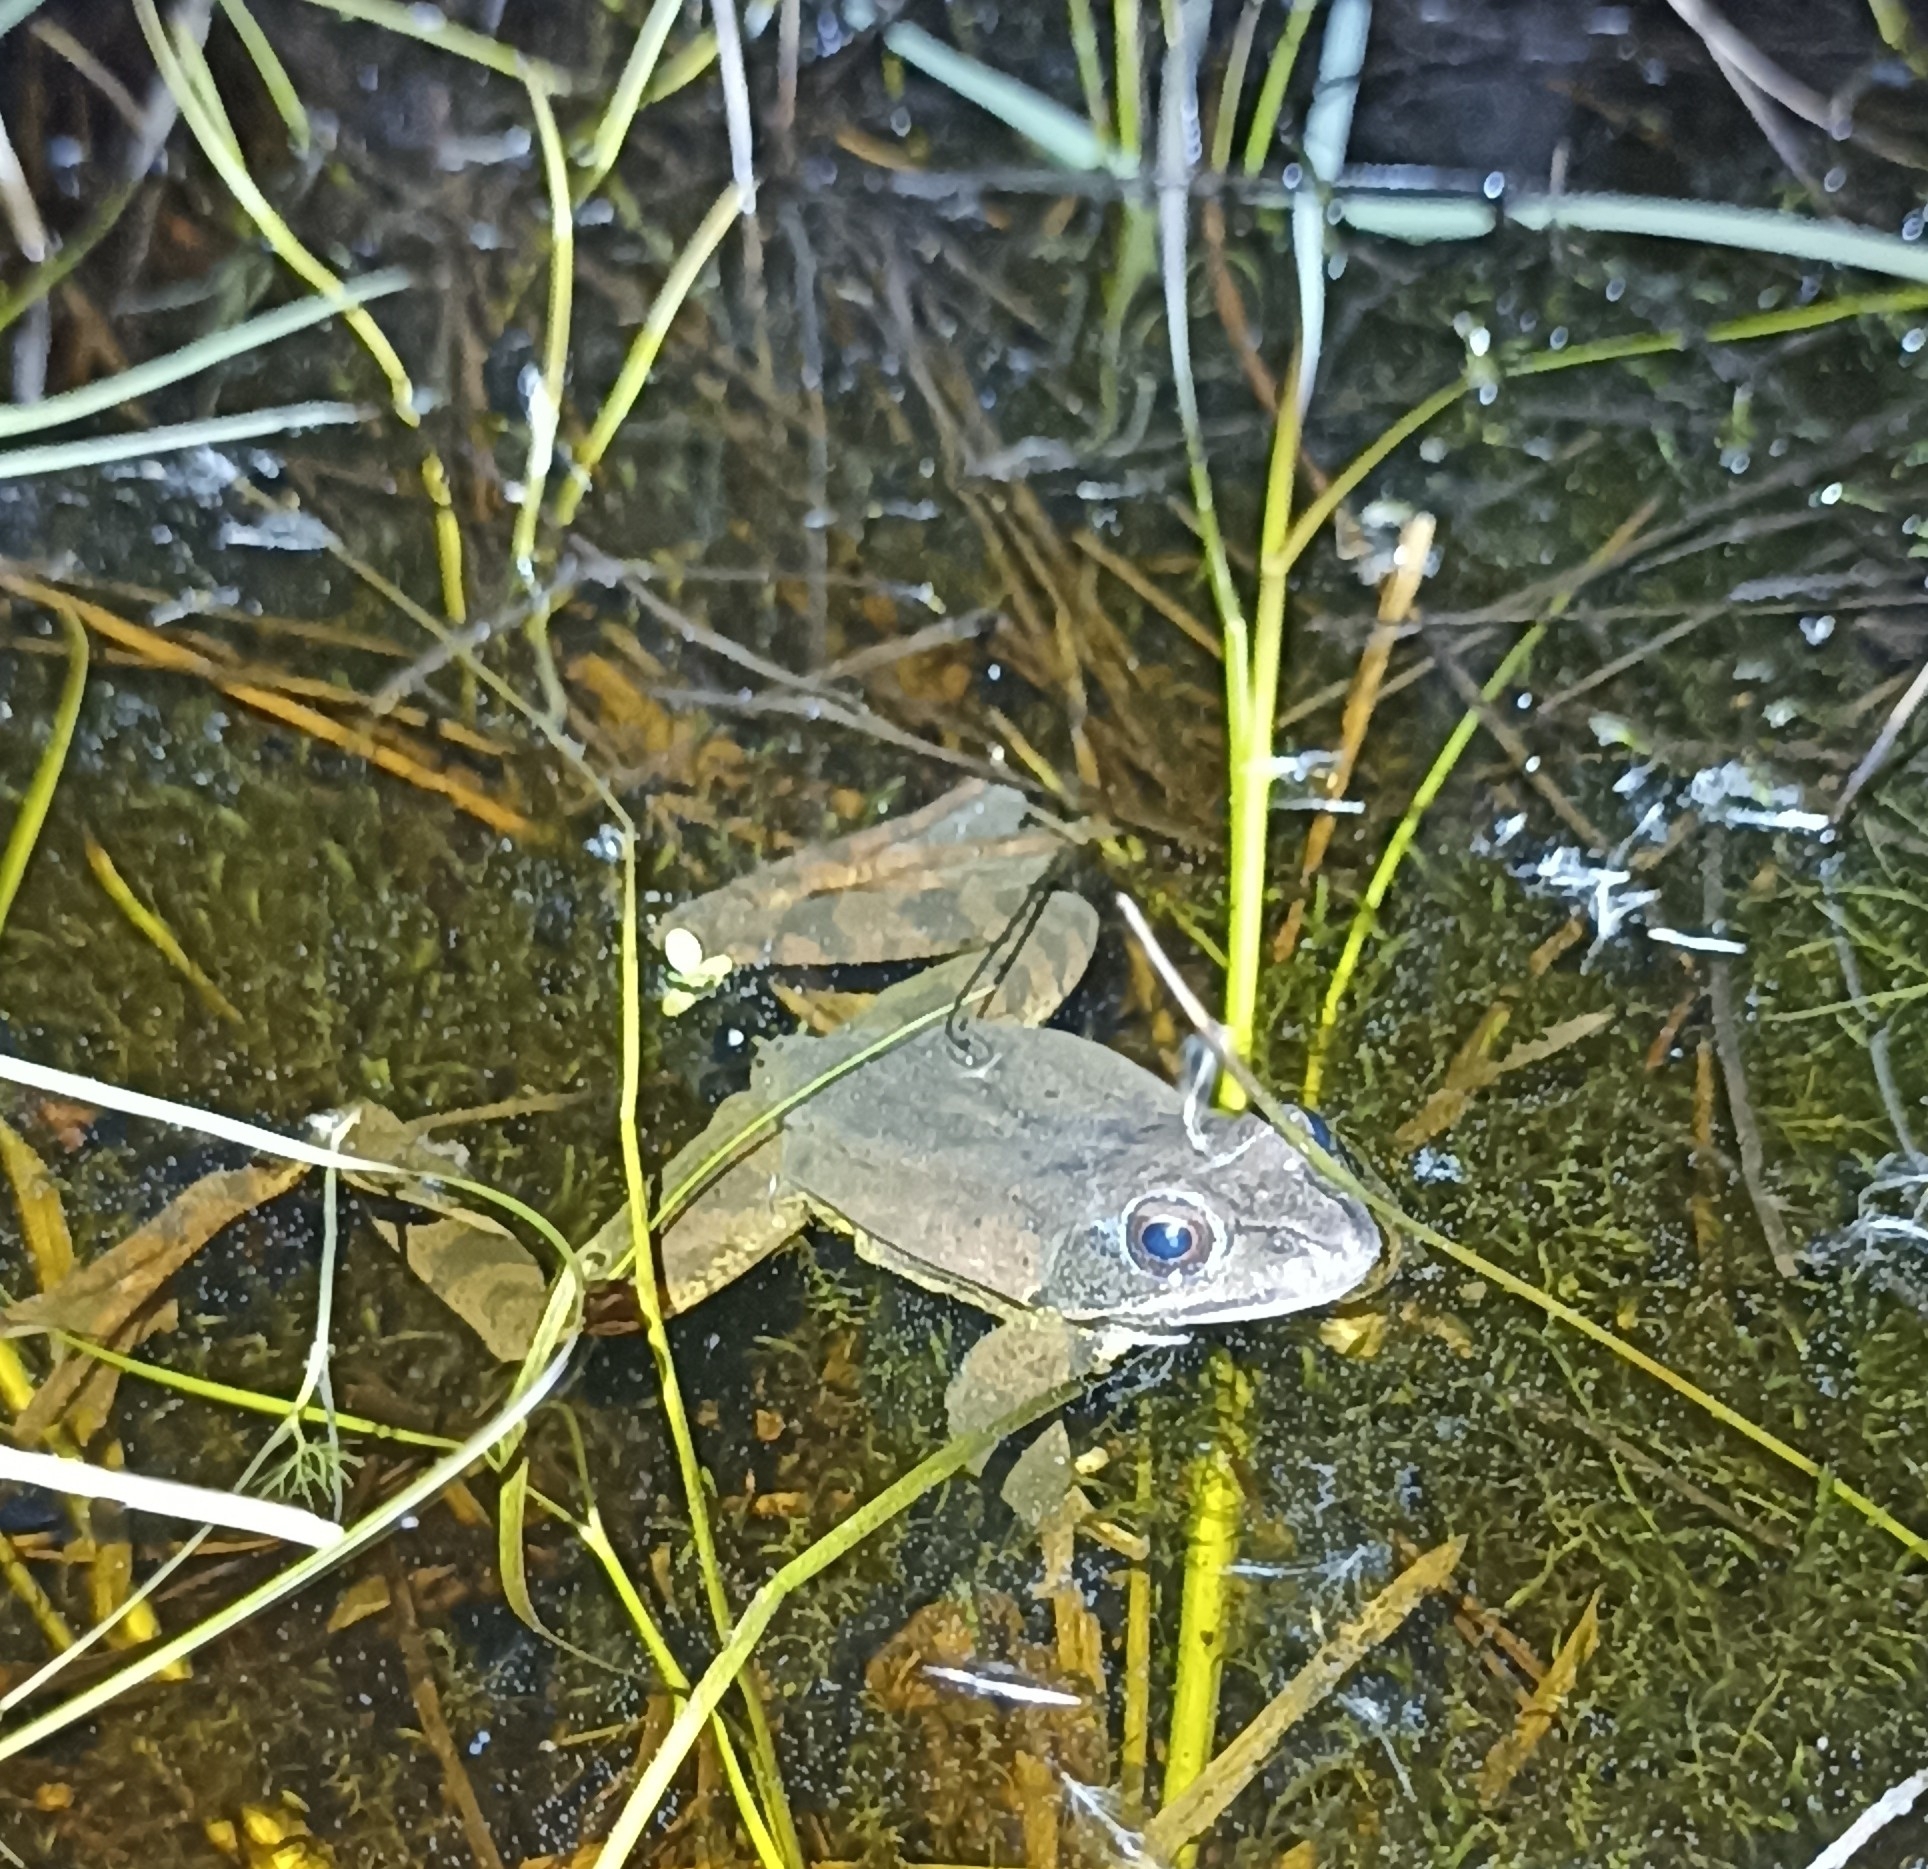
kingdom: Animalia
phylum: Chordata
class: Amphibia
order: Anura
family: Ranidae
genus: Rana
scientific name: Rana dalmatina
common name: Agile frog
